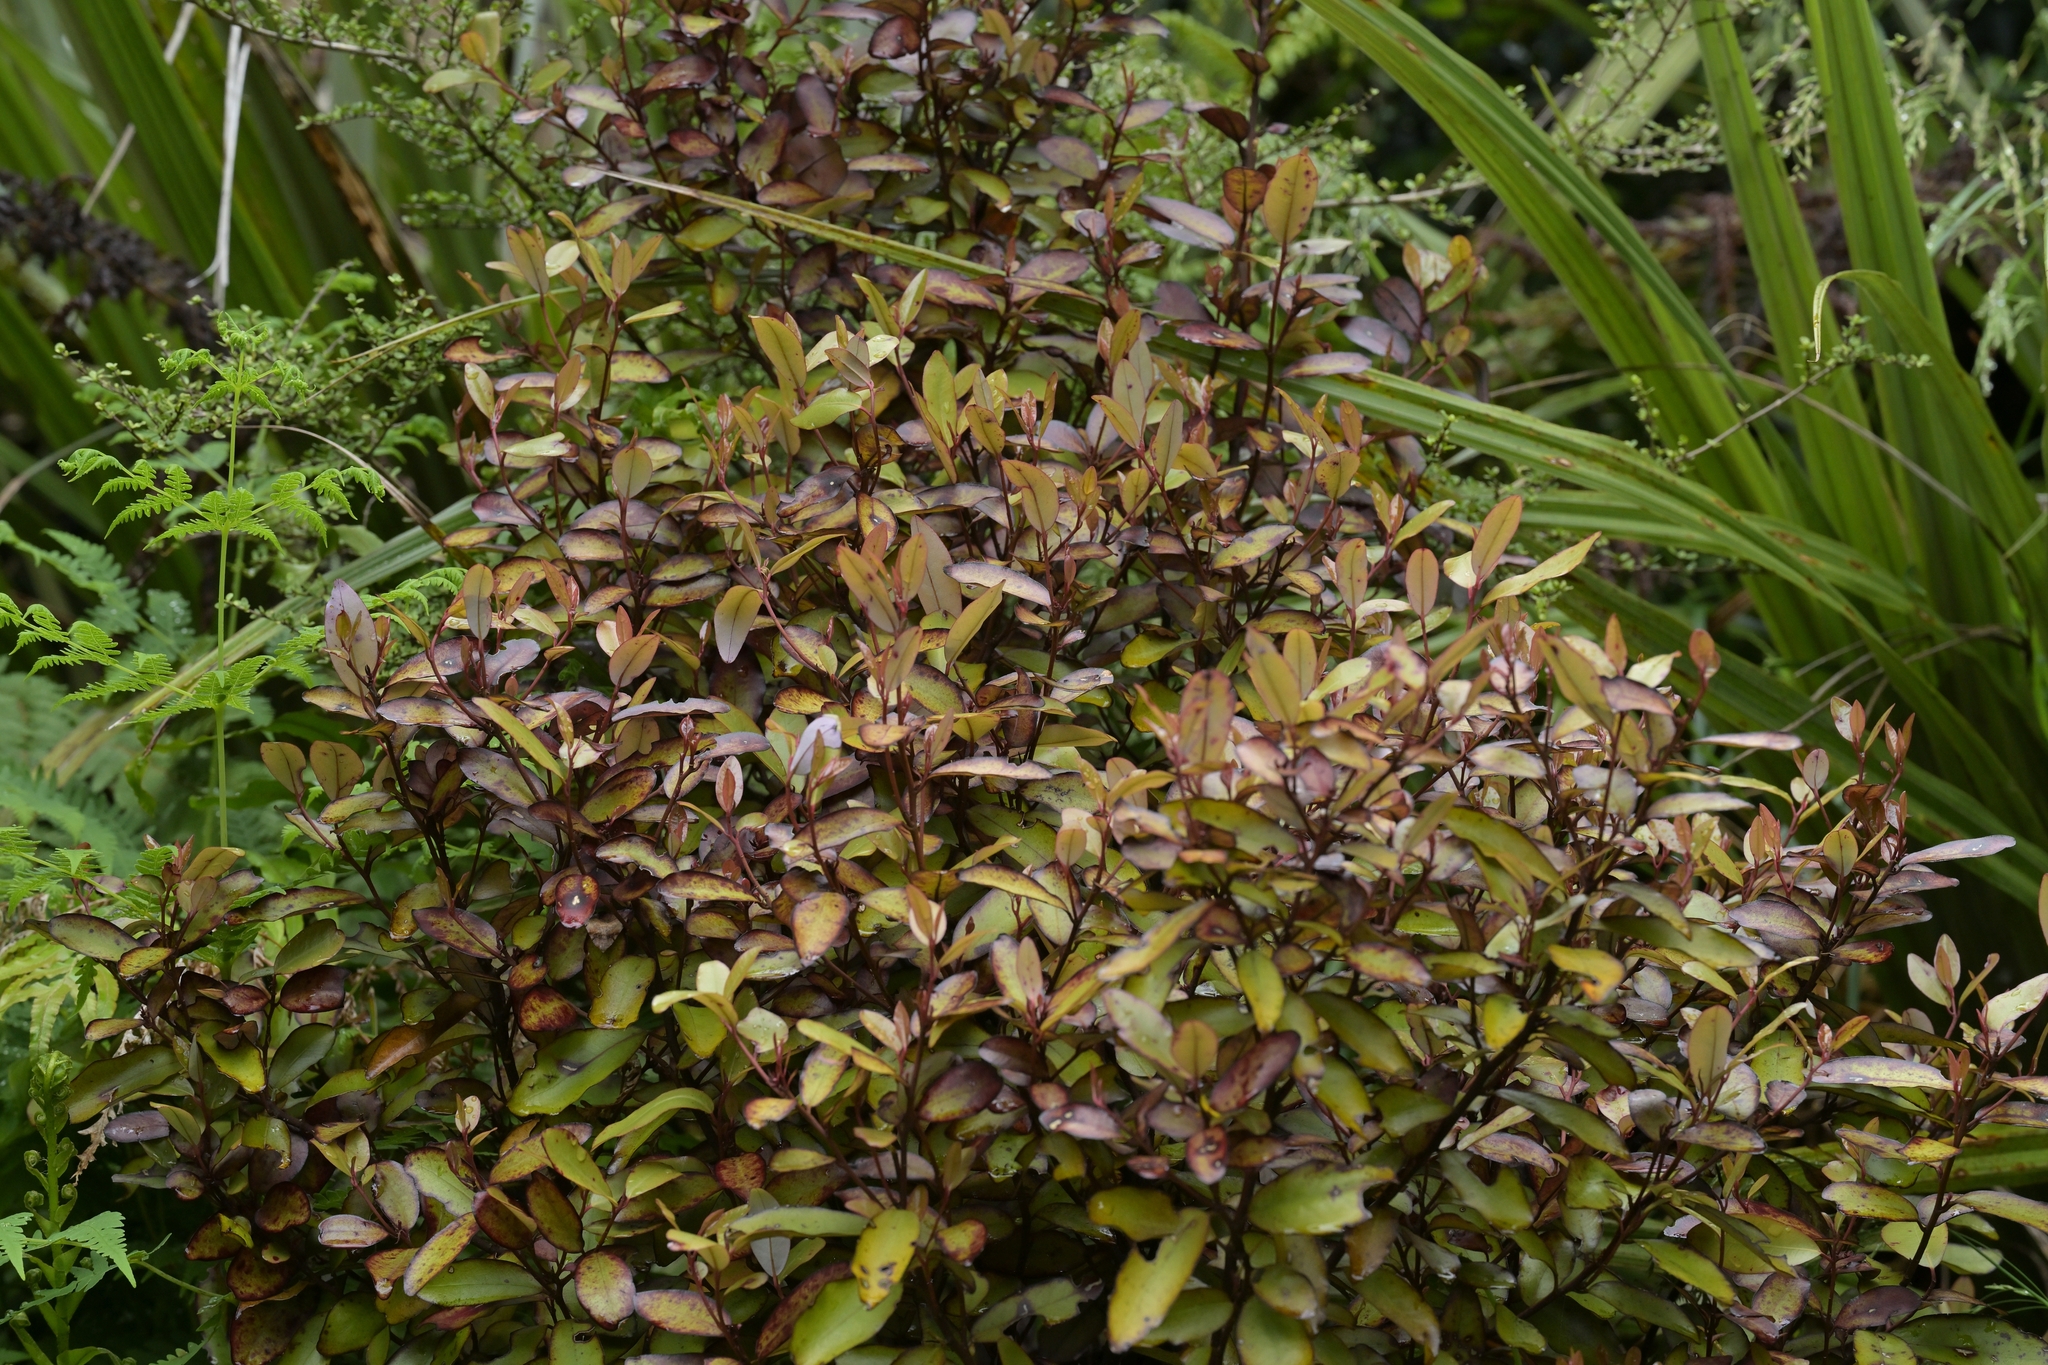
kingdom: Plantae
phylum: Tracheophyta
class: Magnoliopsida
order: Canellales
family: Winteraceae
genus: Pseudowintera
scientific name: Pseudowintera colorata
